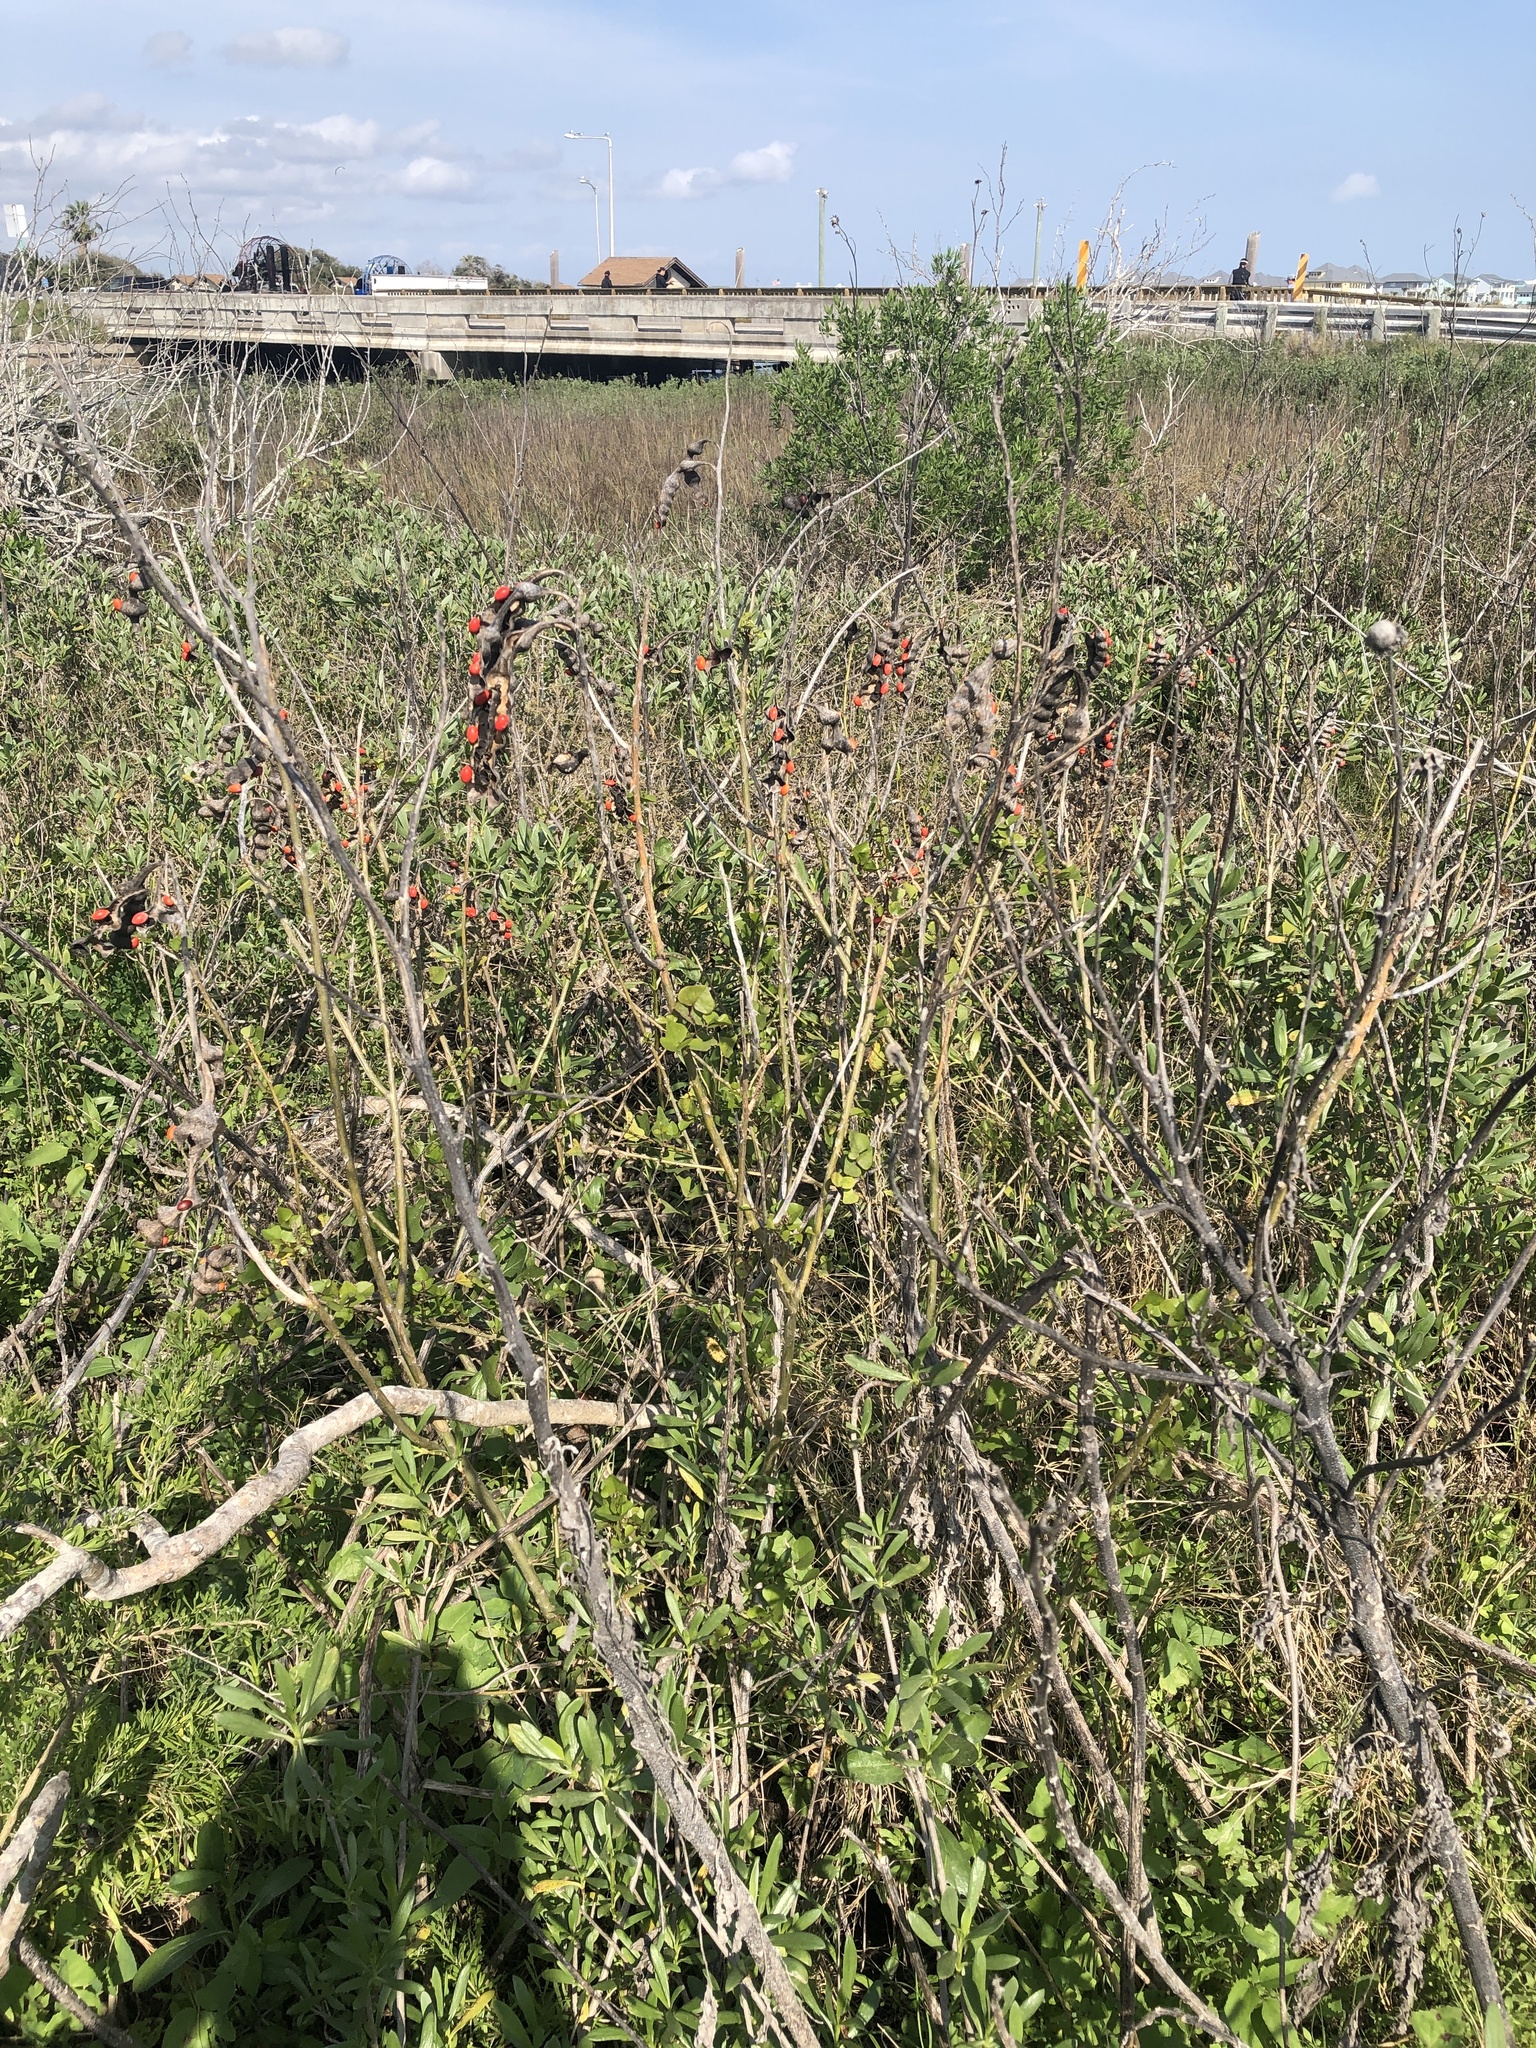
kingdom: Plantae
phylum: Tracheophyta
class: Magnoliopsida
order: Fabales
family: Fabaceae
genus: Erythrina
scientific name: Erythrina herbacea
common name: Coral-bean
